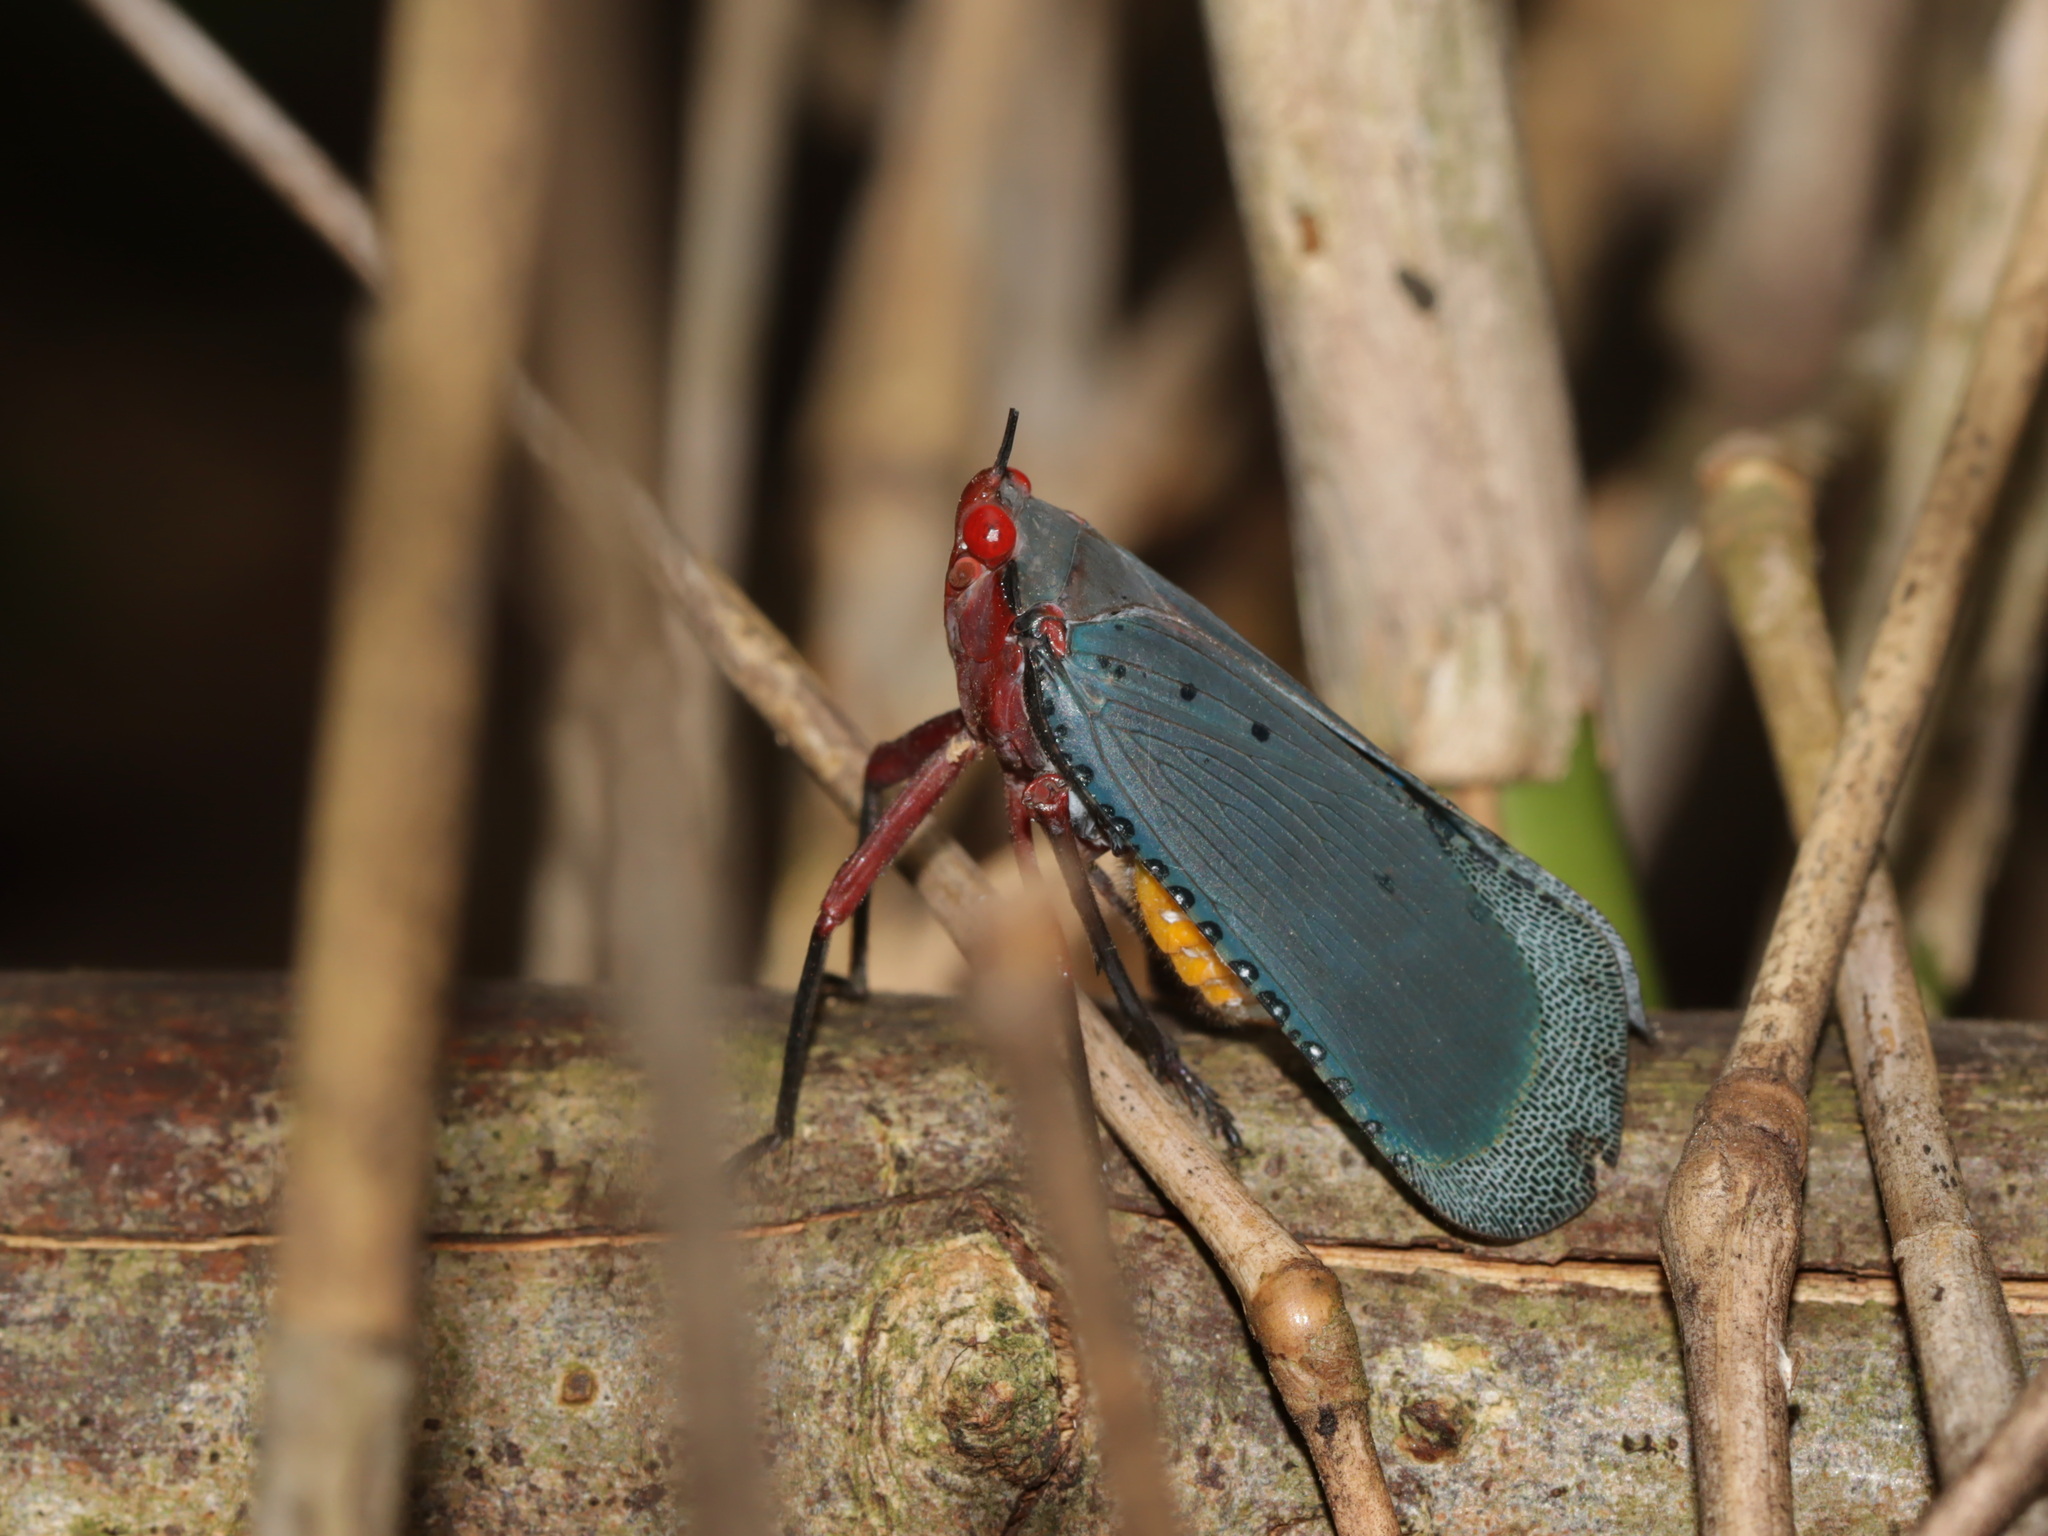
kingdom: Animalia
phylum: Arthropoda
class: Insecta
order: Hemiptera
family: Fulgoridae
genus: Kalidasa
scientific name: Kalidasa nigromaculata
